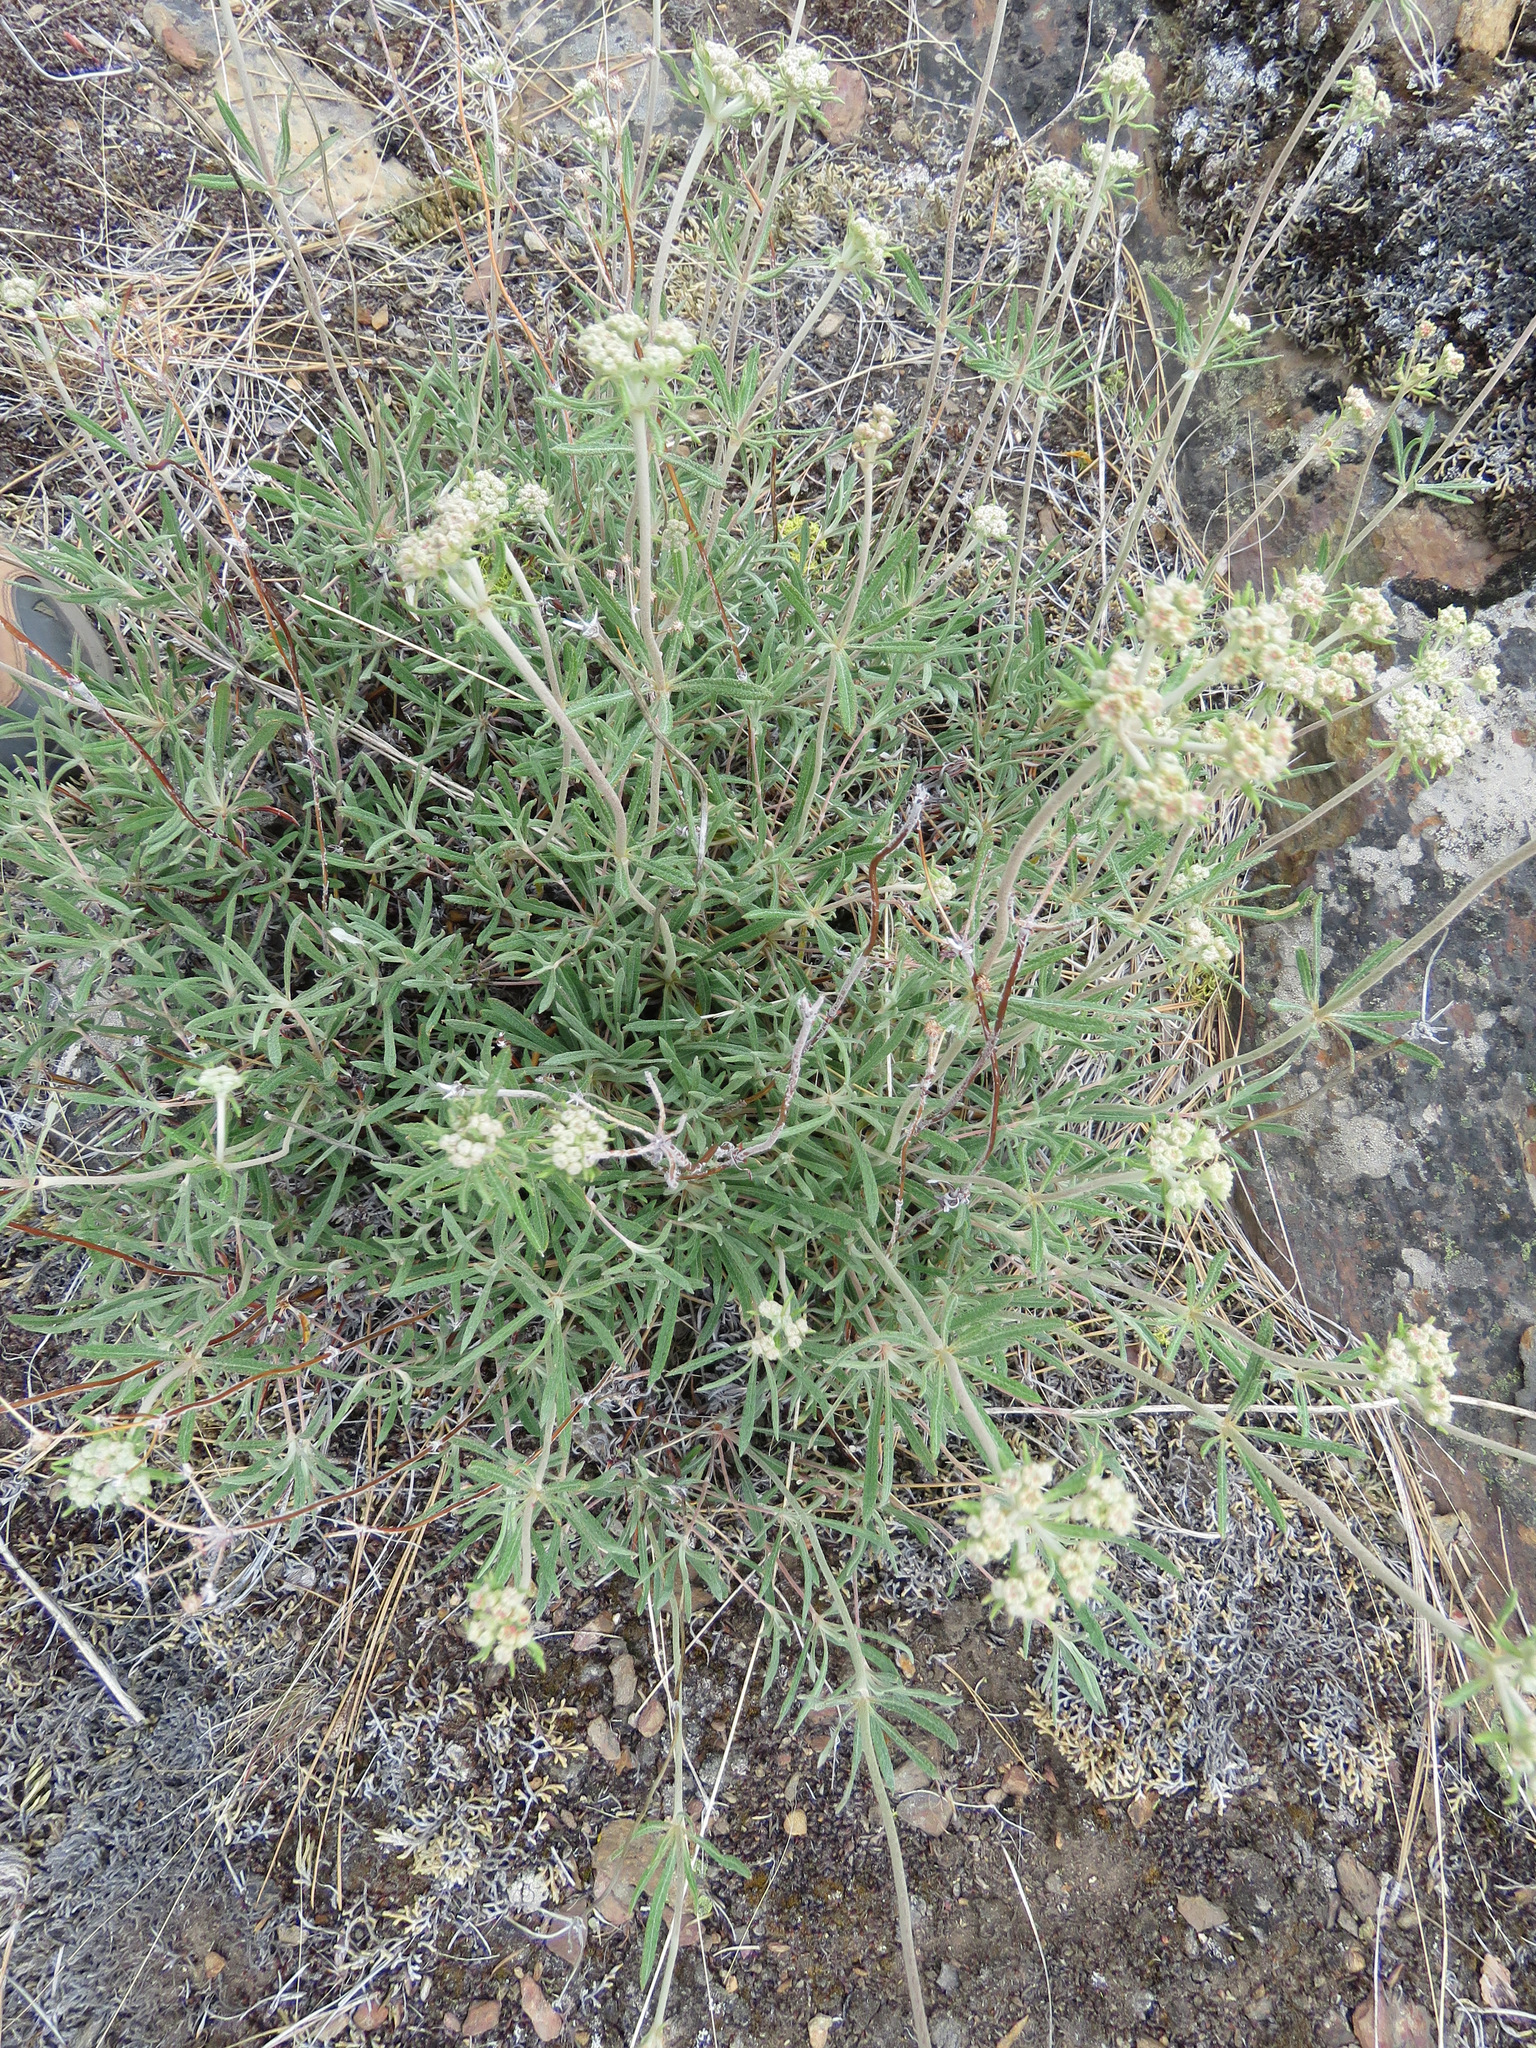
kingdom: Plantae
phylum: Tracheophyta
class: Magnoliopsida
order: Caryophyllales
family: Polygonaceae
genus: Eriogonum
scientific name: Eriogonum heracleoides
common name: Wyeth's buckwheat
